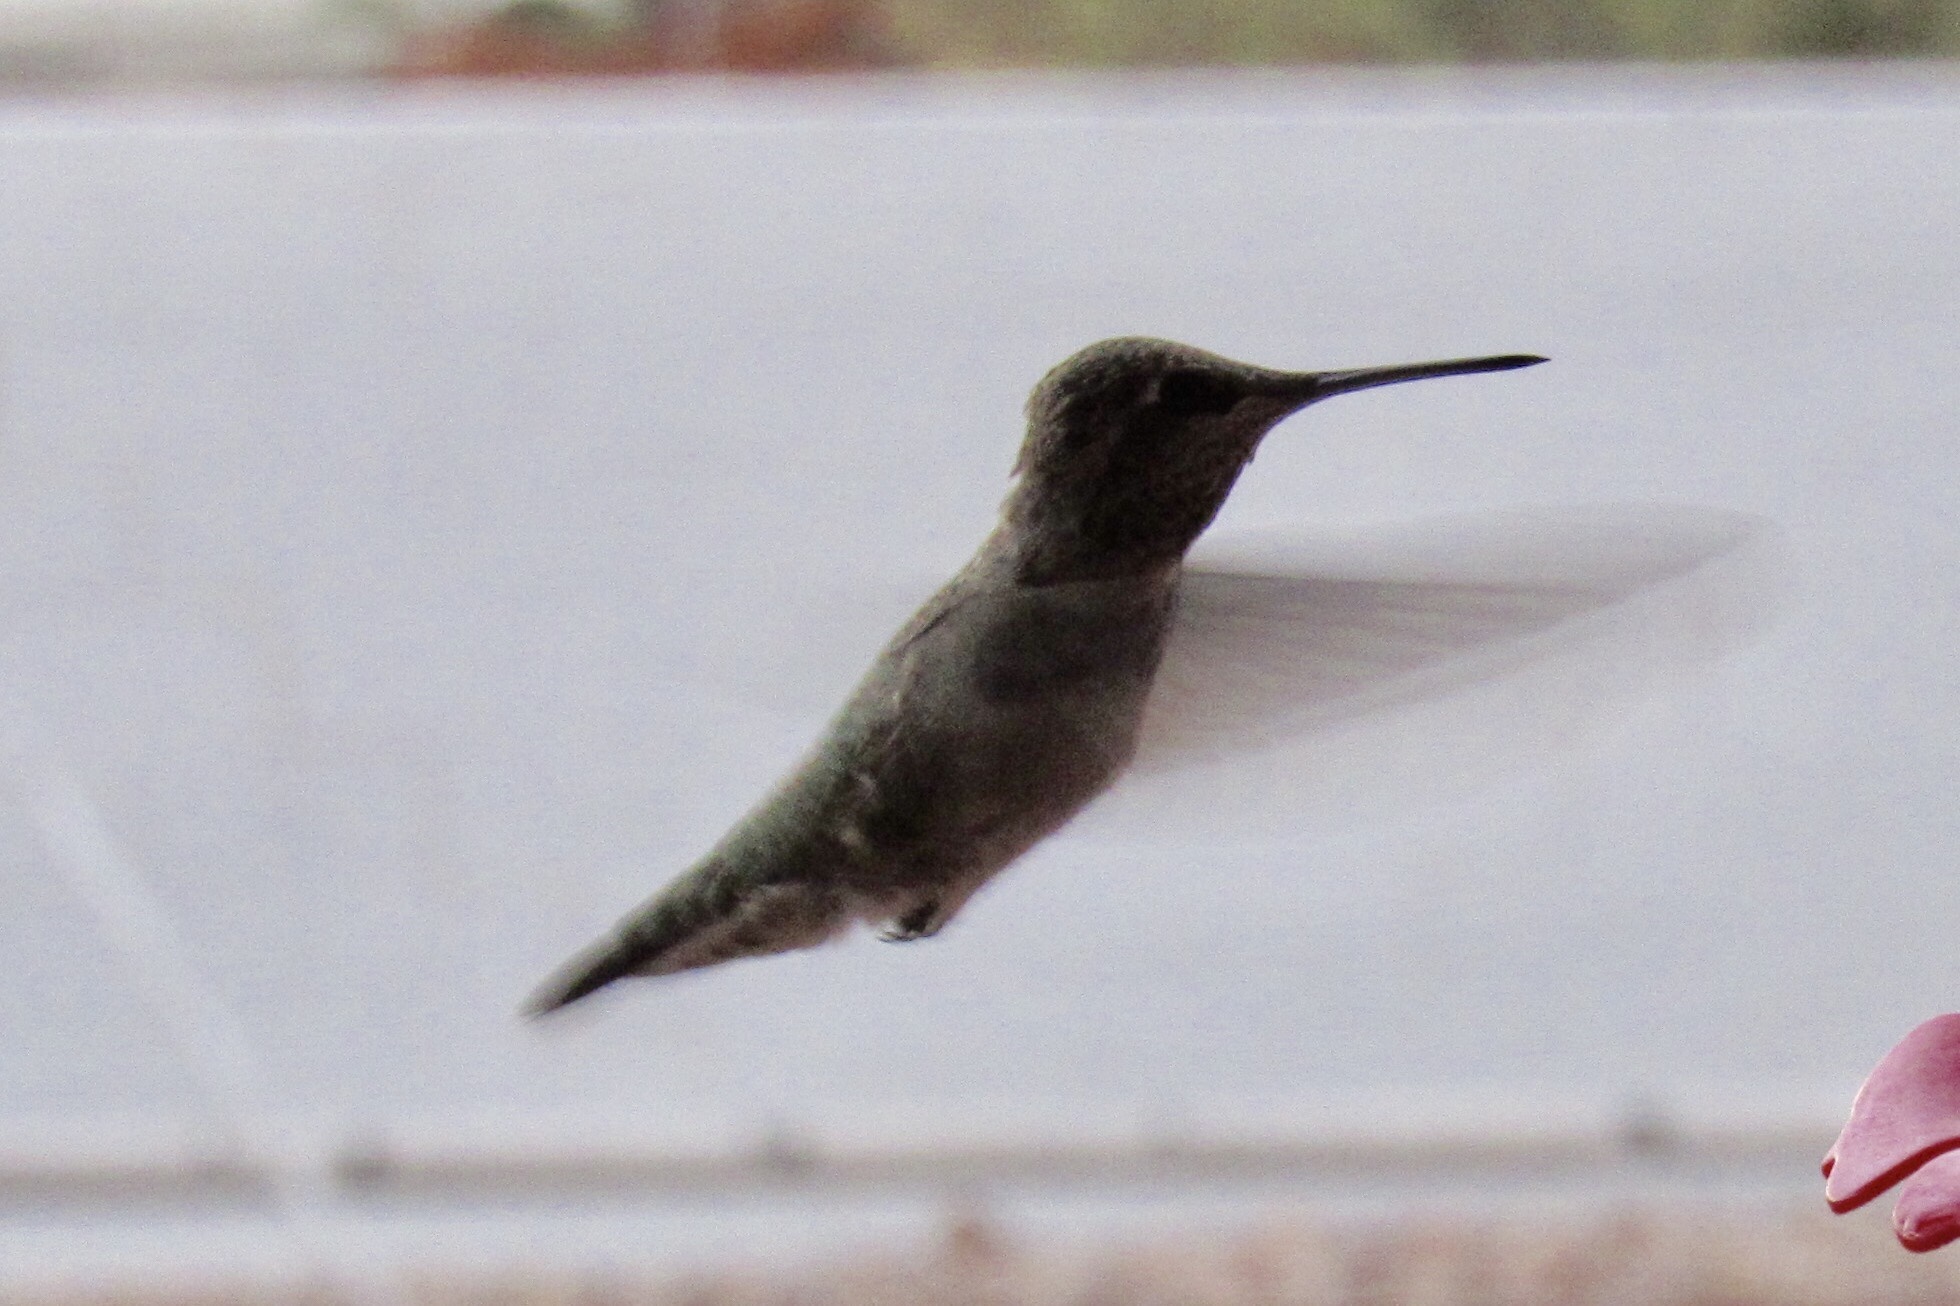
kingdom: Animalia
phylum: Chordata
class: Aves
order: Apodiformes
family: Trochilidae
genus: Calypte
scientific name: Calypte anna
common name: Anna's hummingbird
